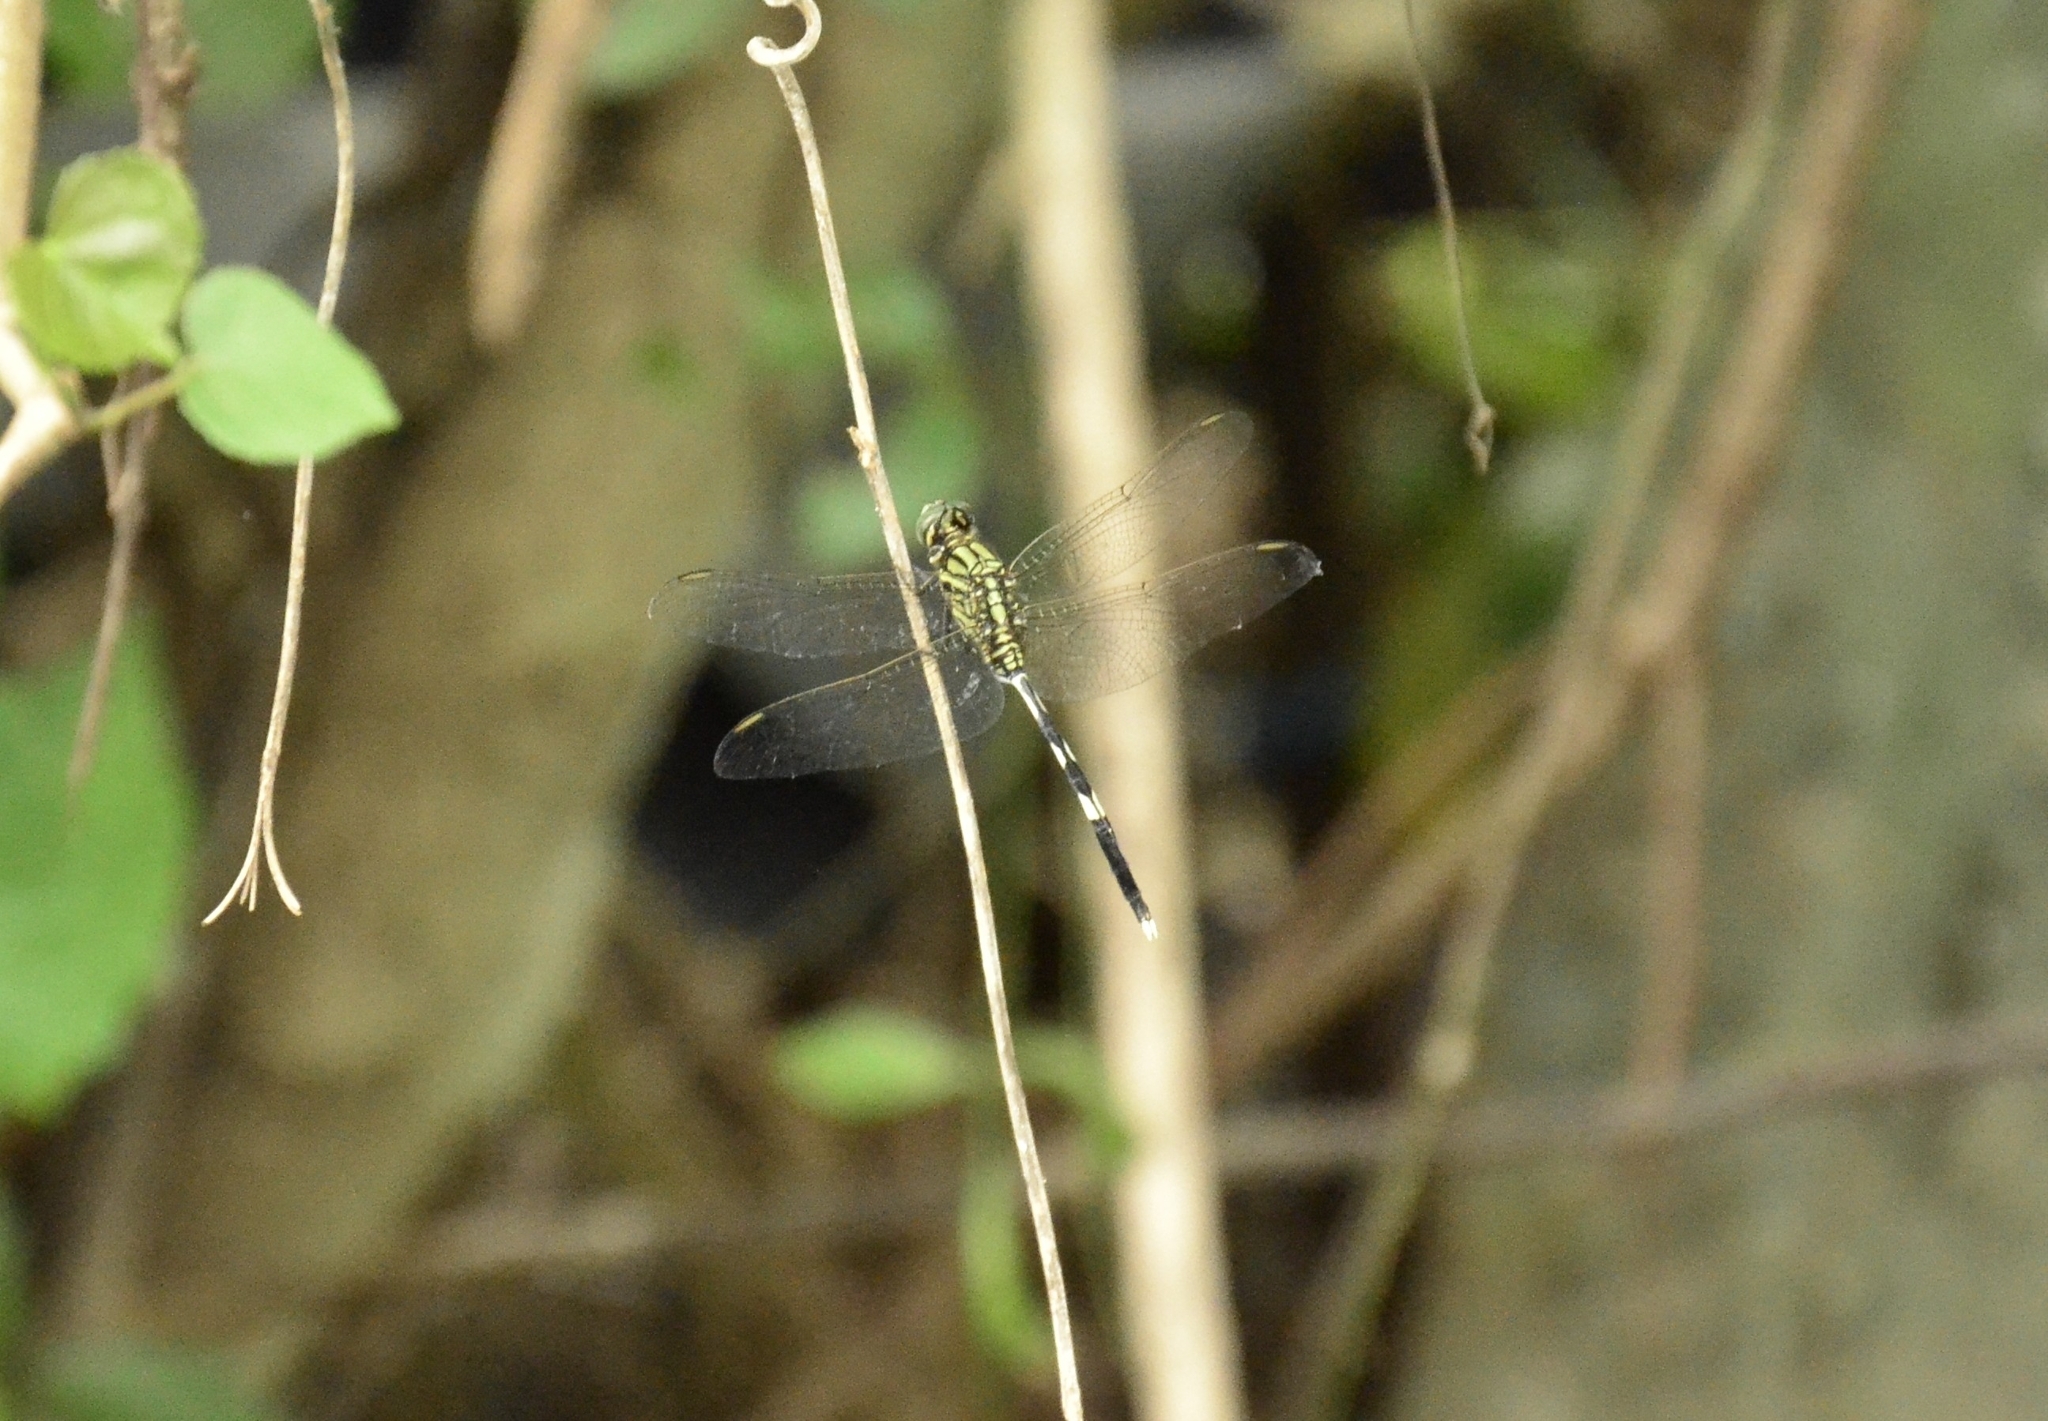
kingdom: Animalia
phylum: Arthropoda
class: Insecta
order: Odonata
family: Libellulidae
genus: Orthetrum
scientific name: Orthetrum sabina
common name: Slender skimmer
